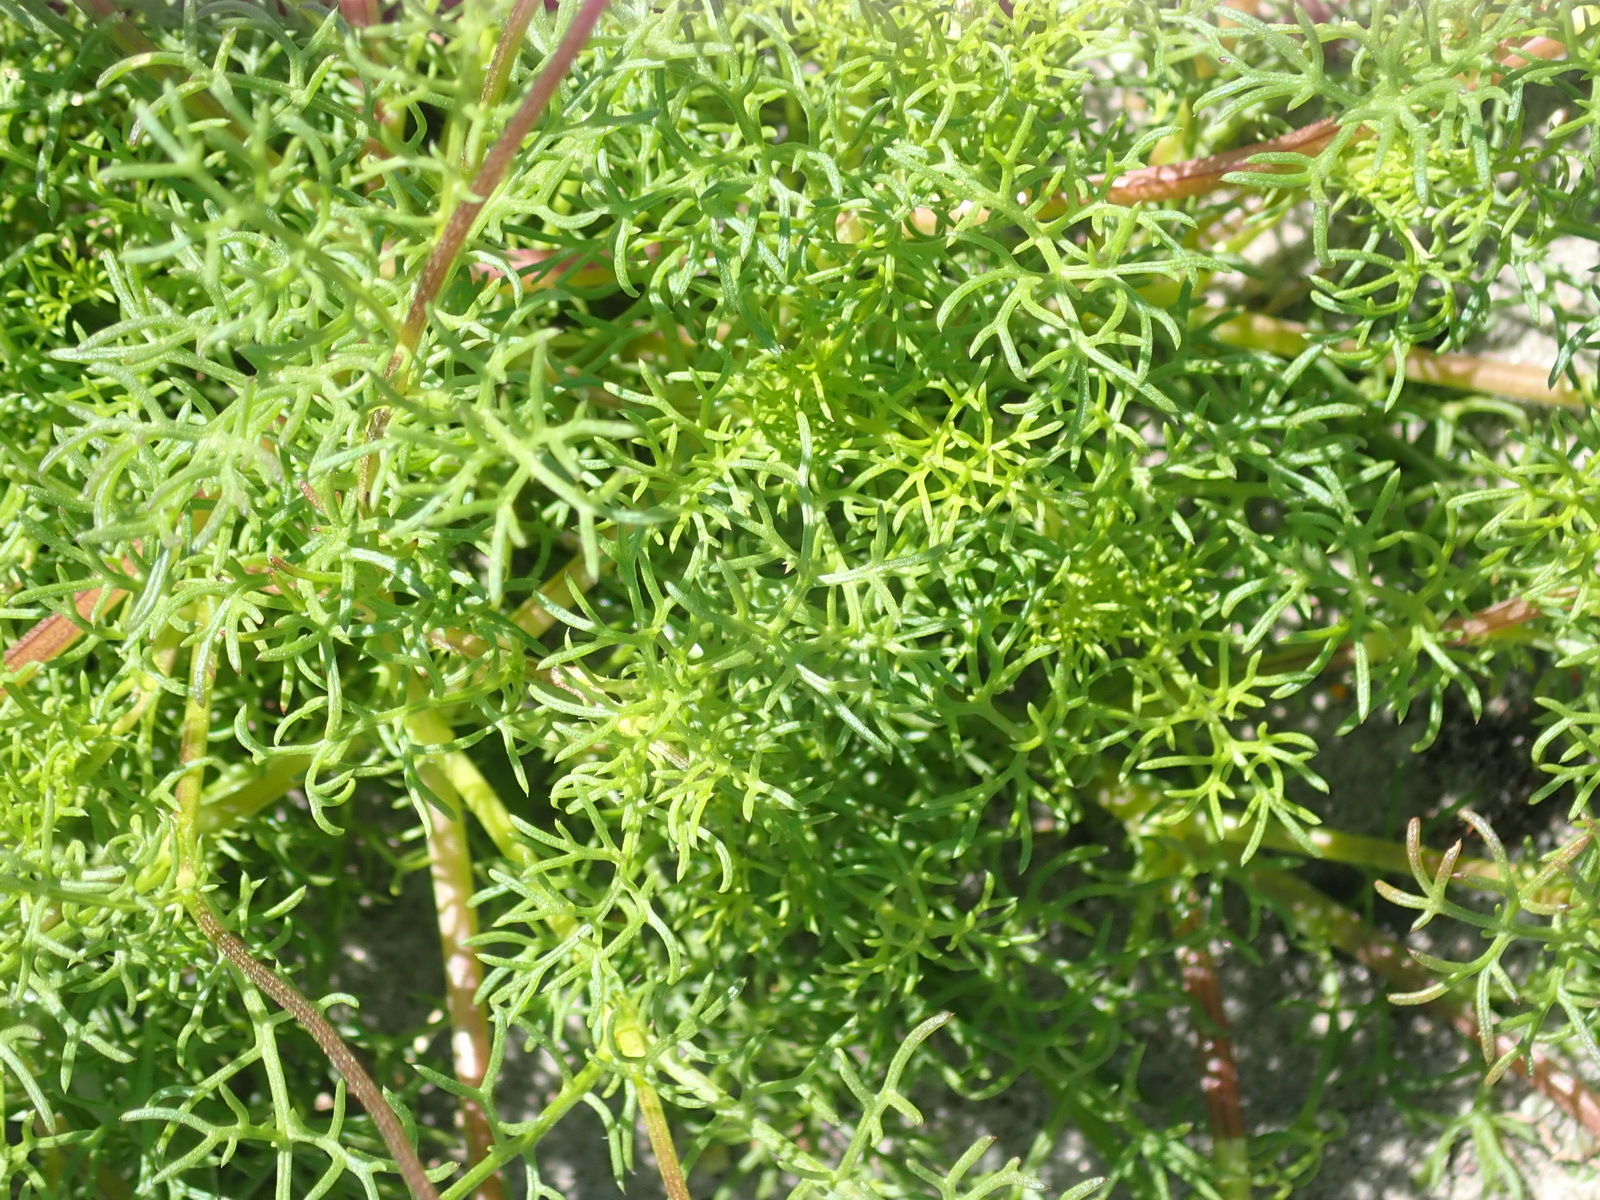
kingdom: Plantae
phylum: Tracheophyta
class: Magnoliopsida
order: Asterales
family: Asteraceae
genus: Ursinia
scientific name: Ursinia anthemoides
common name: Ursinia
